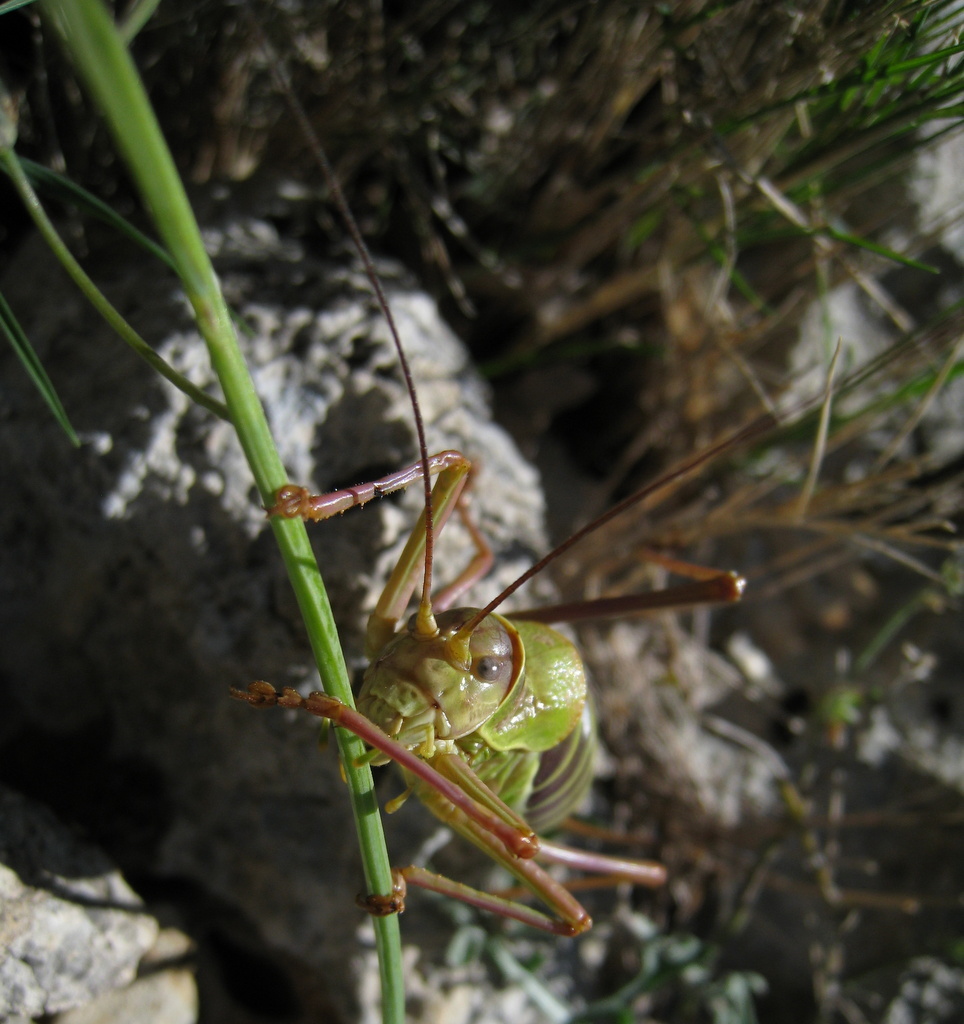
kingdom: Animalia
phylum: Arthropoda
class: Insecta
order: Orthoptera
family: Tettigoniidae
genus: Ephippiger
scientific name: Ephippiger diurnus
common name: Western saddle bush-cricket
